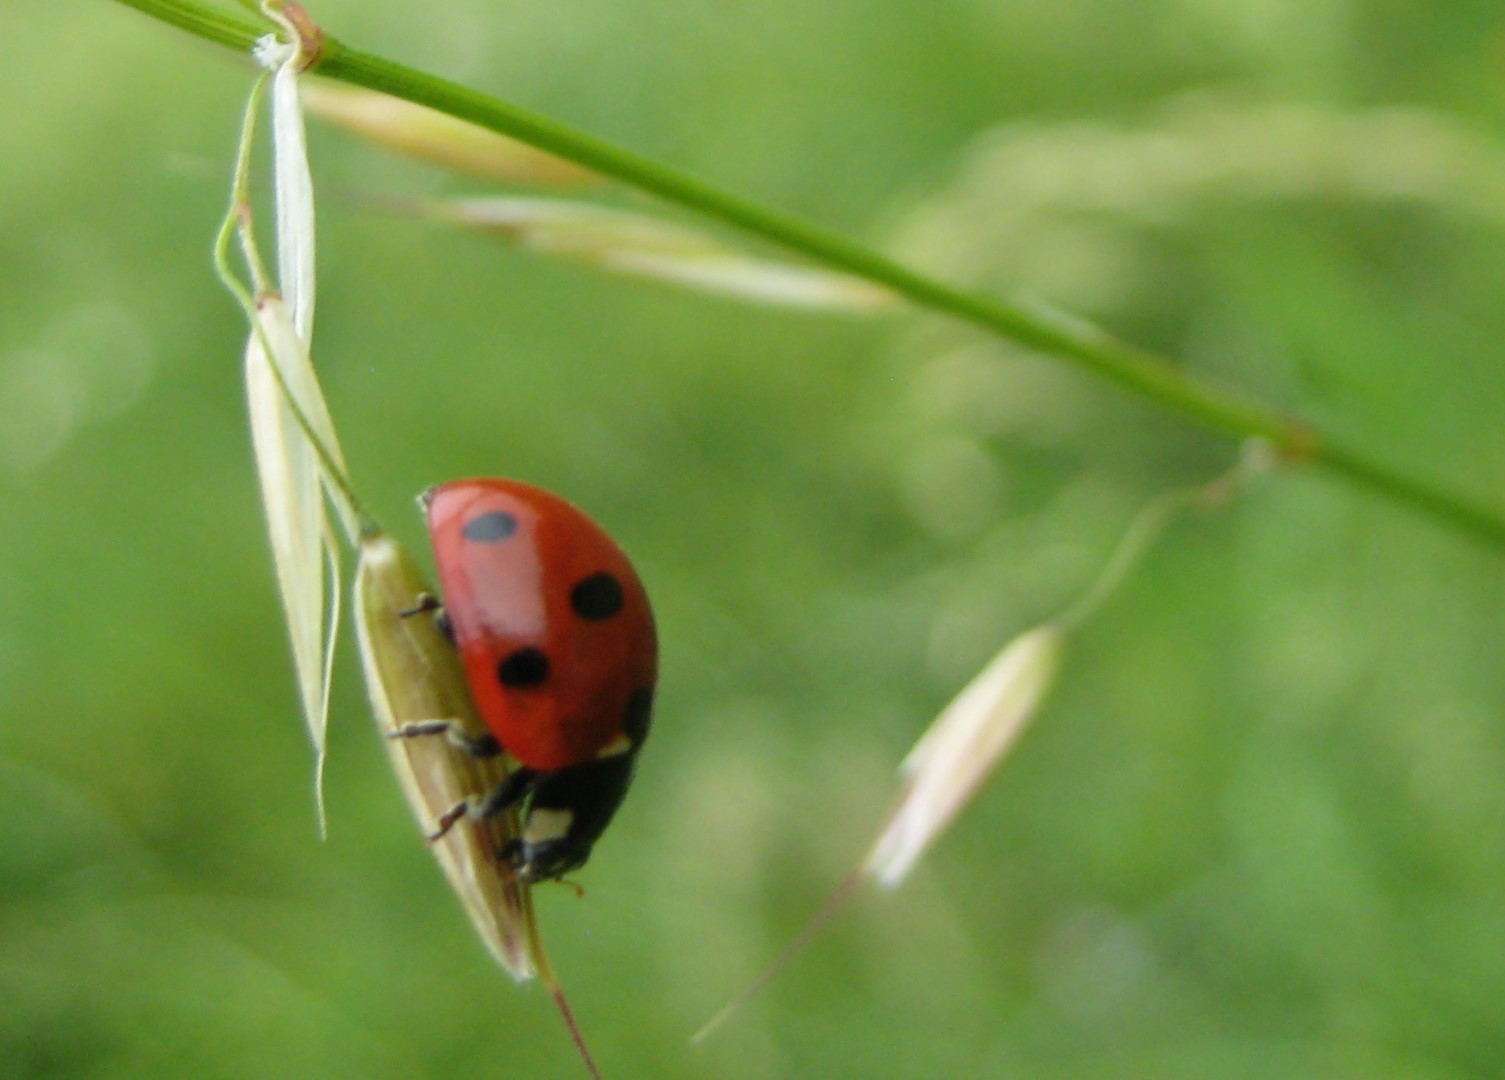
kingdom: Animalia
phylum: Arthropoda
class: Insecta
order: Coleoptera
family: Coccinellidae
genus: Coccinella
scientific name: Coccinella septempunctata
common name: Sevenspotted lady beetle
